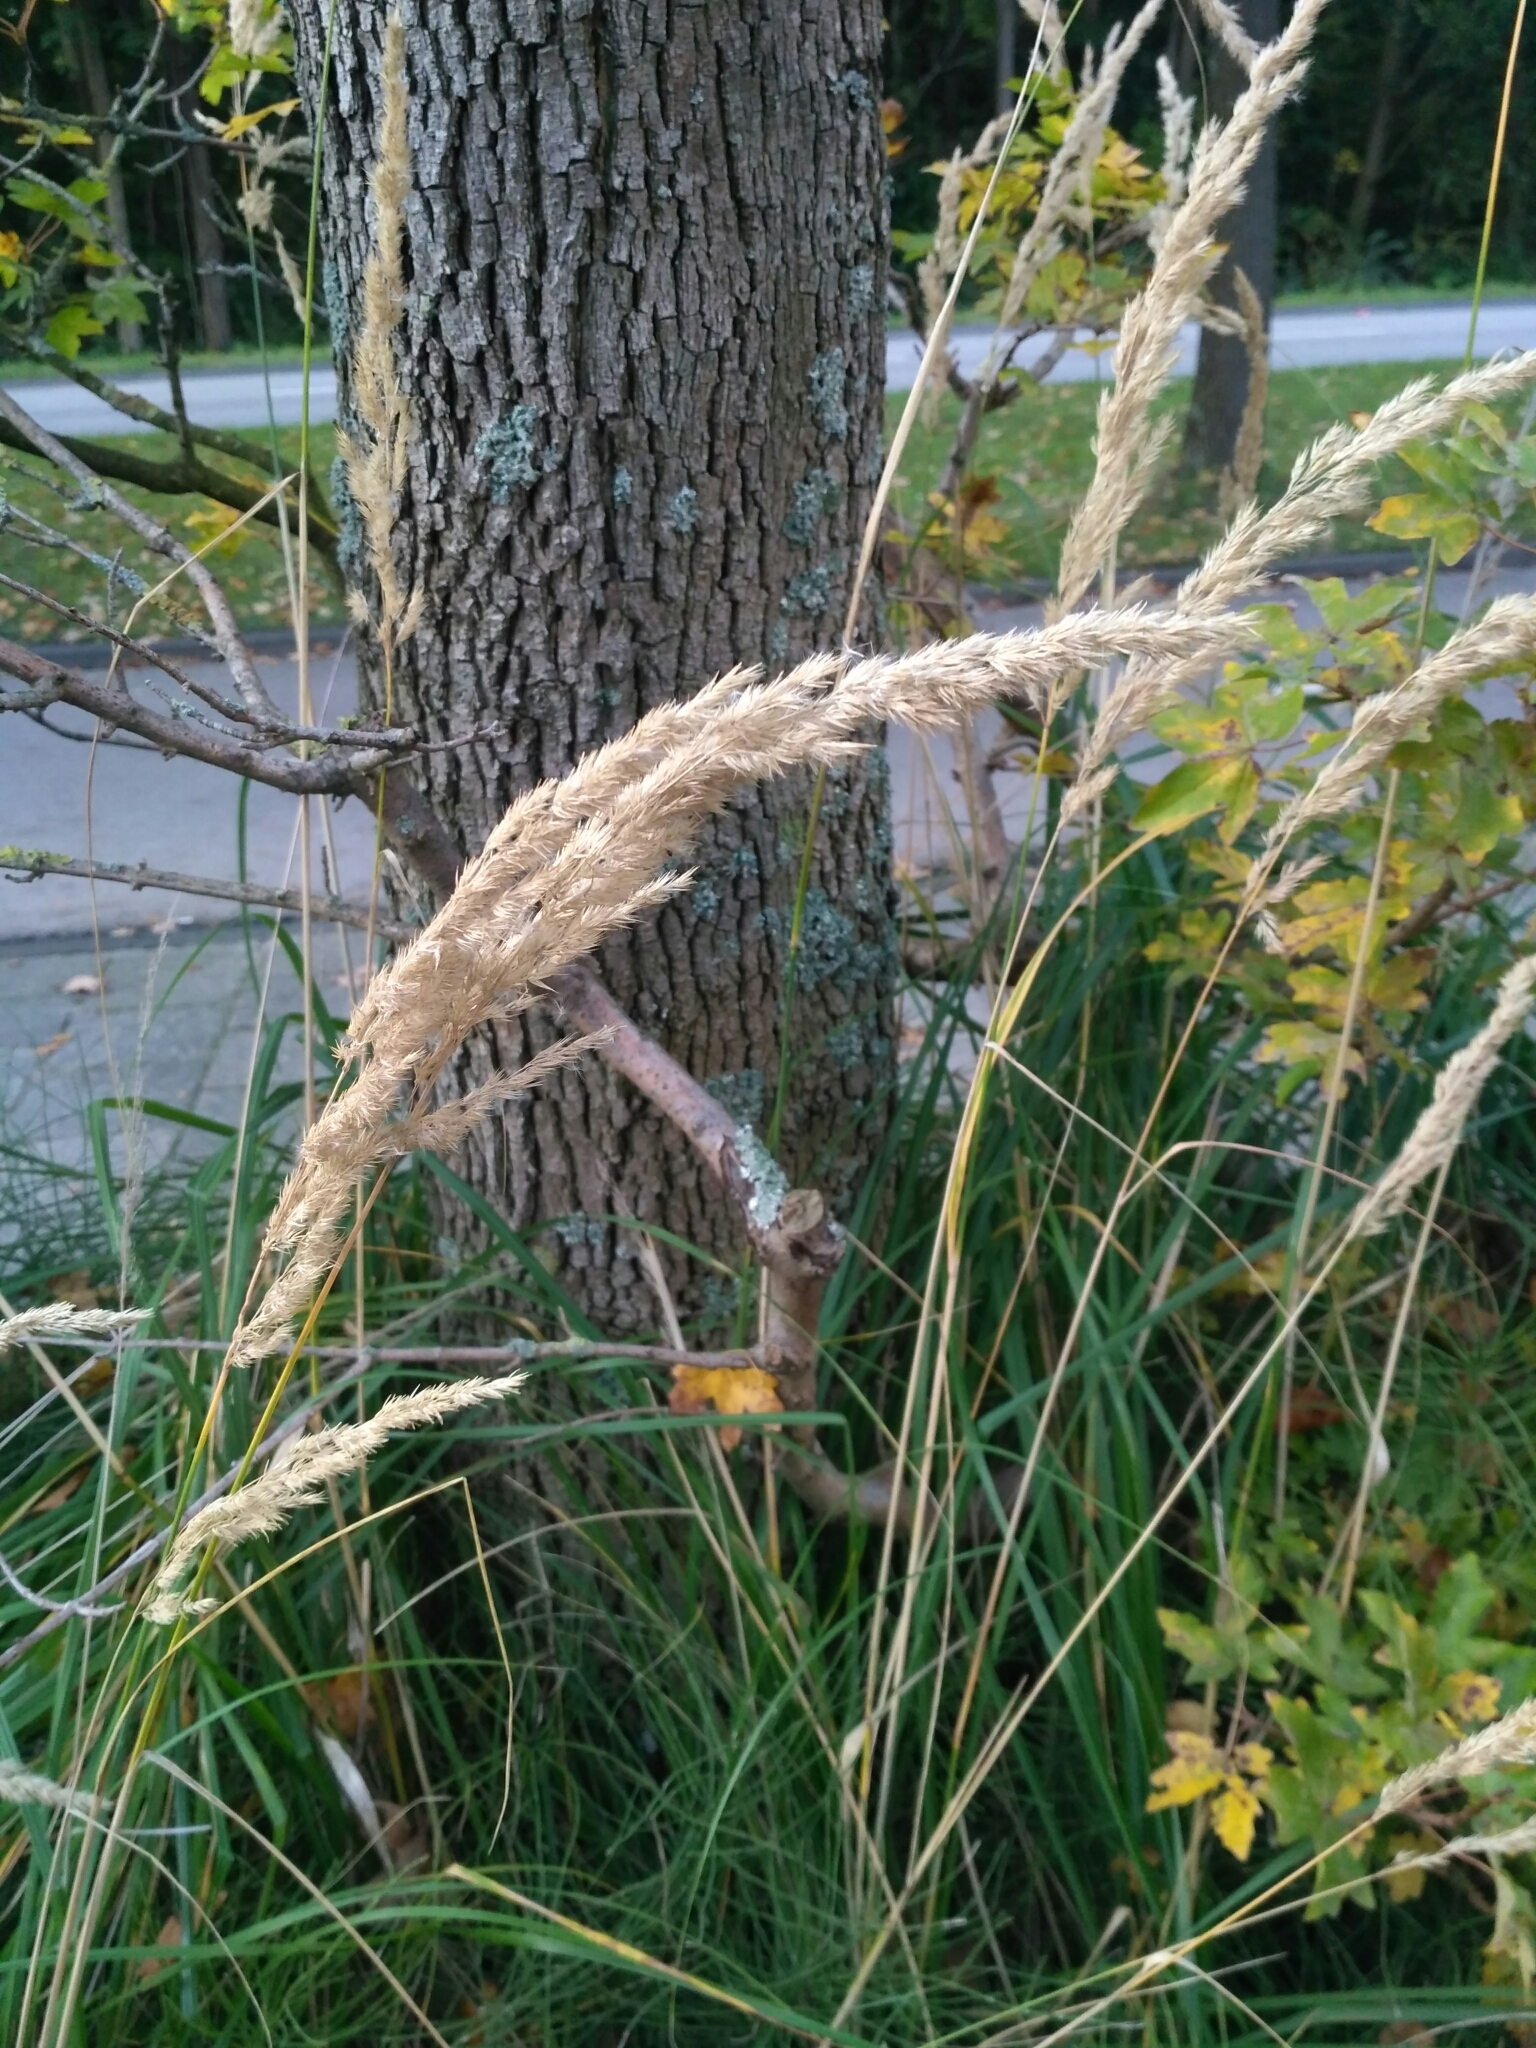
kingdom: Plantae
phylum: Tracheophyta
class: Liliopsida
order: Poales
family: Poaceae
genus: Calamagrostis
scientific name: Calamagrostis epigejos
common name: Wood small-reed
